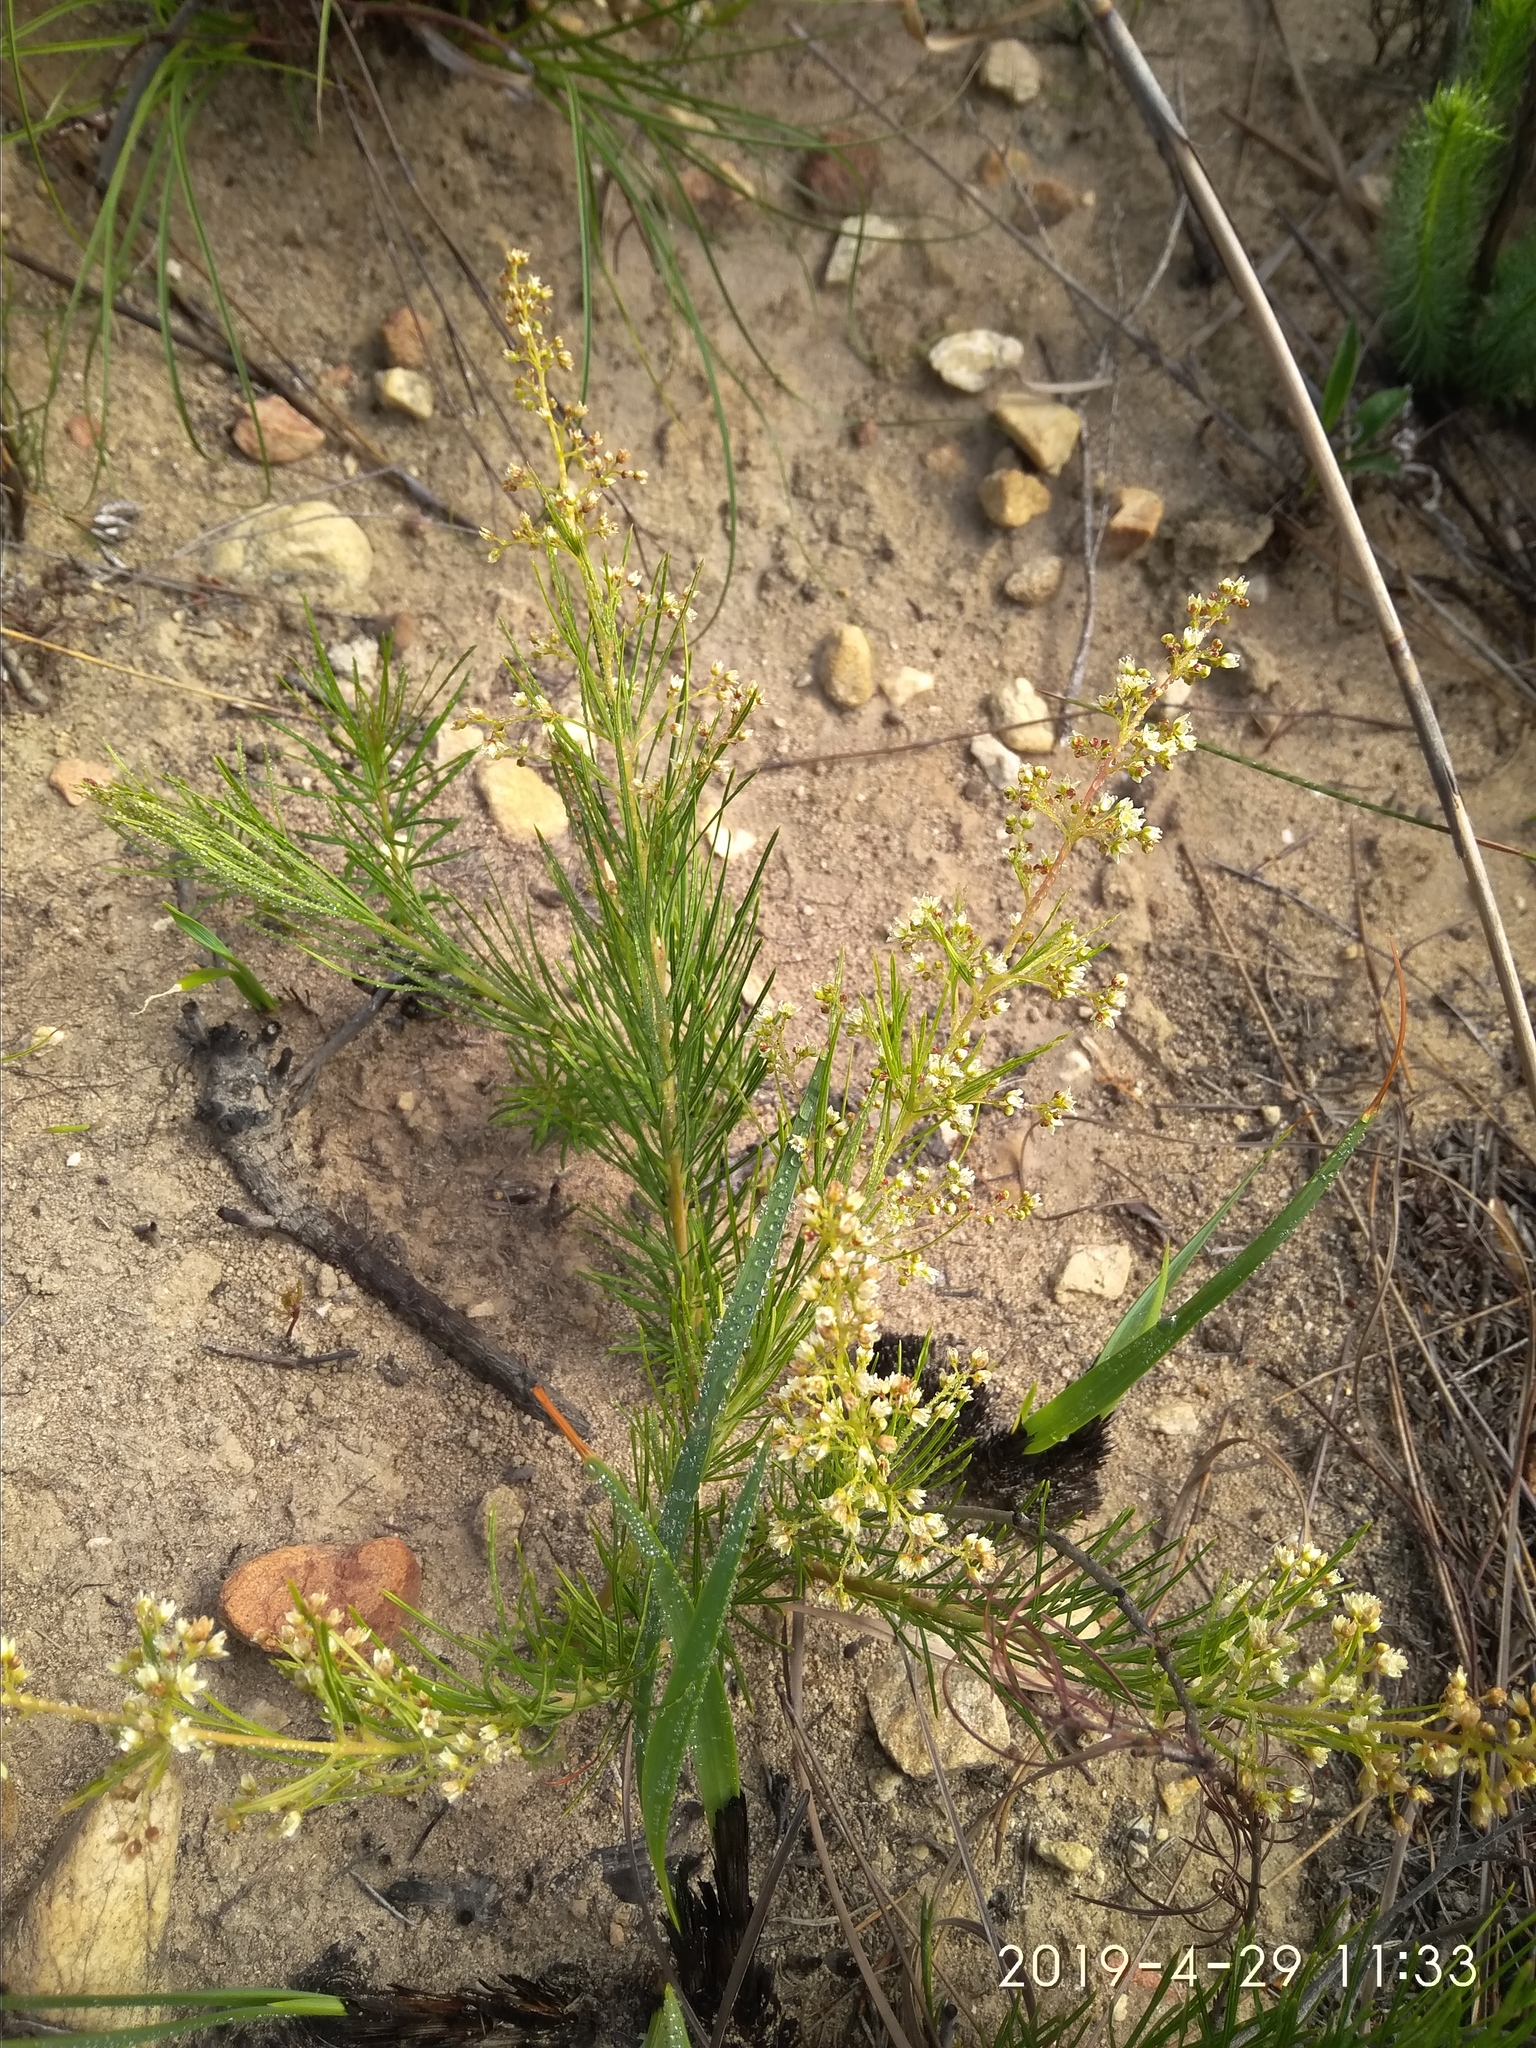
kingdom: Plantae
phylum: Tracheophyta
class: Magnoliopsida
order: Sapindales
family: Anacardiaceae
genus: Searsia
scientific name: Searsia rosmarinifolia
